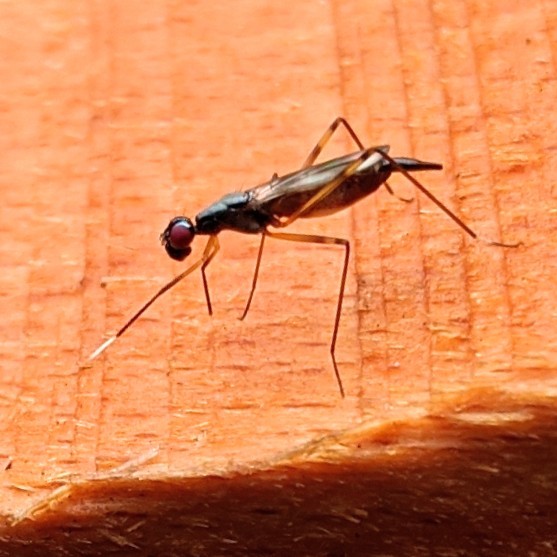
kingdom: Animalia
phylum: Arthropoda
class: Insecta
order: Diptera
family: Micropezidae
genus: Rainieria
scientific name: Rainieria antennaepes
